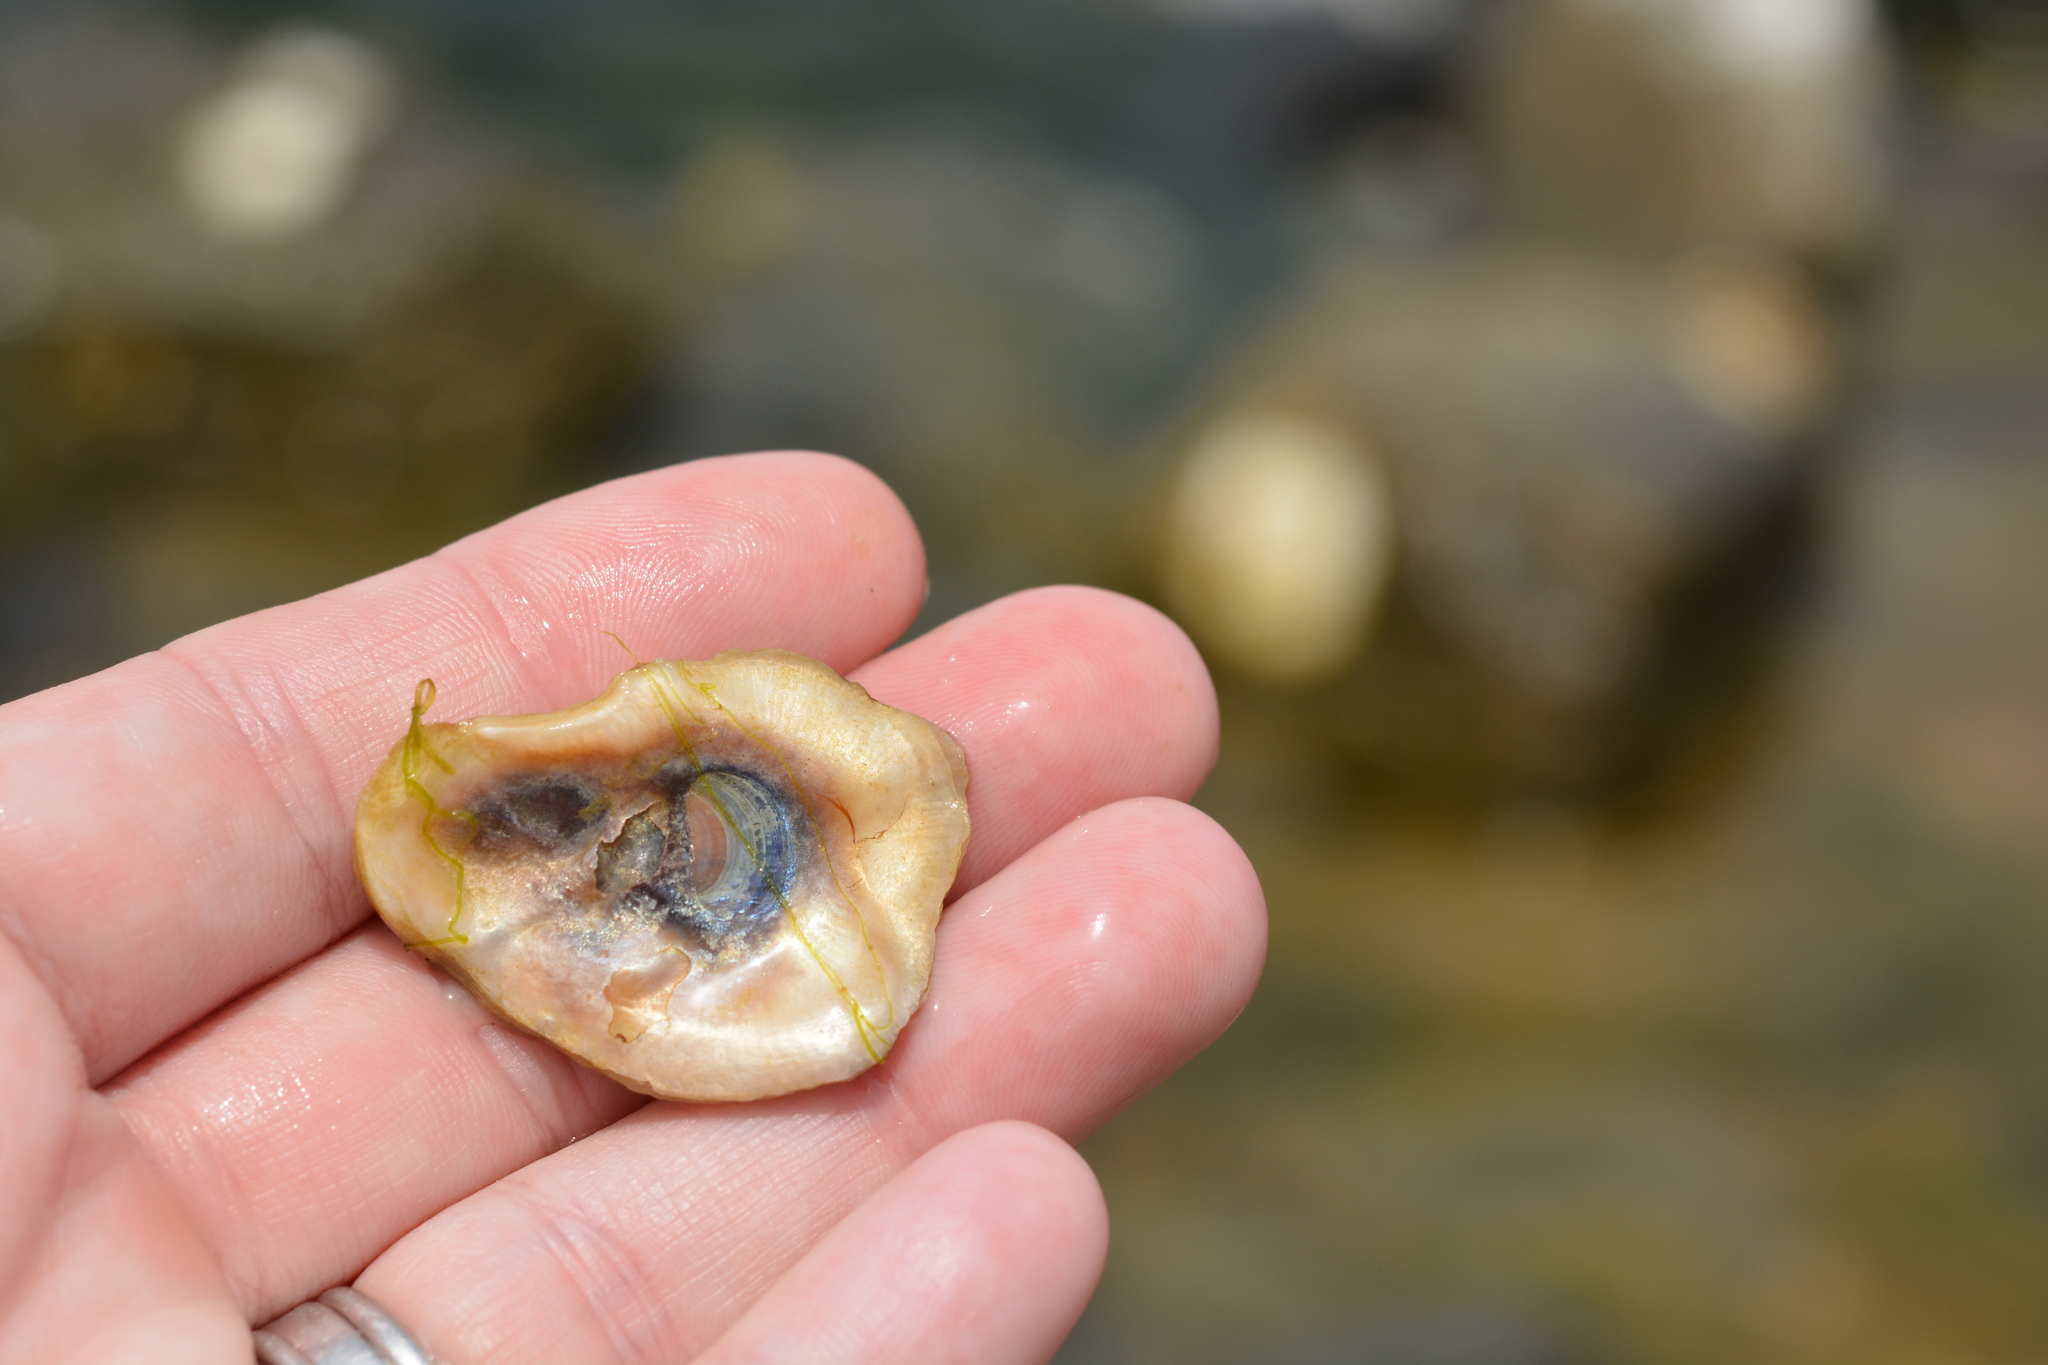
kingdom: Animalia
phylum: Mollusca
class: Bivalvia
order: Ostreida
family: Ostreidae
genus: Crassostrea
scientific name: Crassostrea virginica
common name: American oyster
